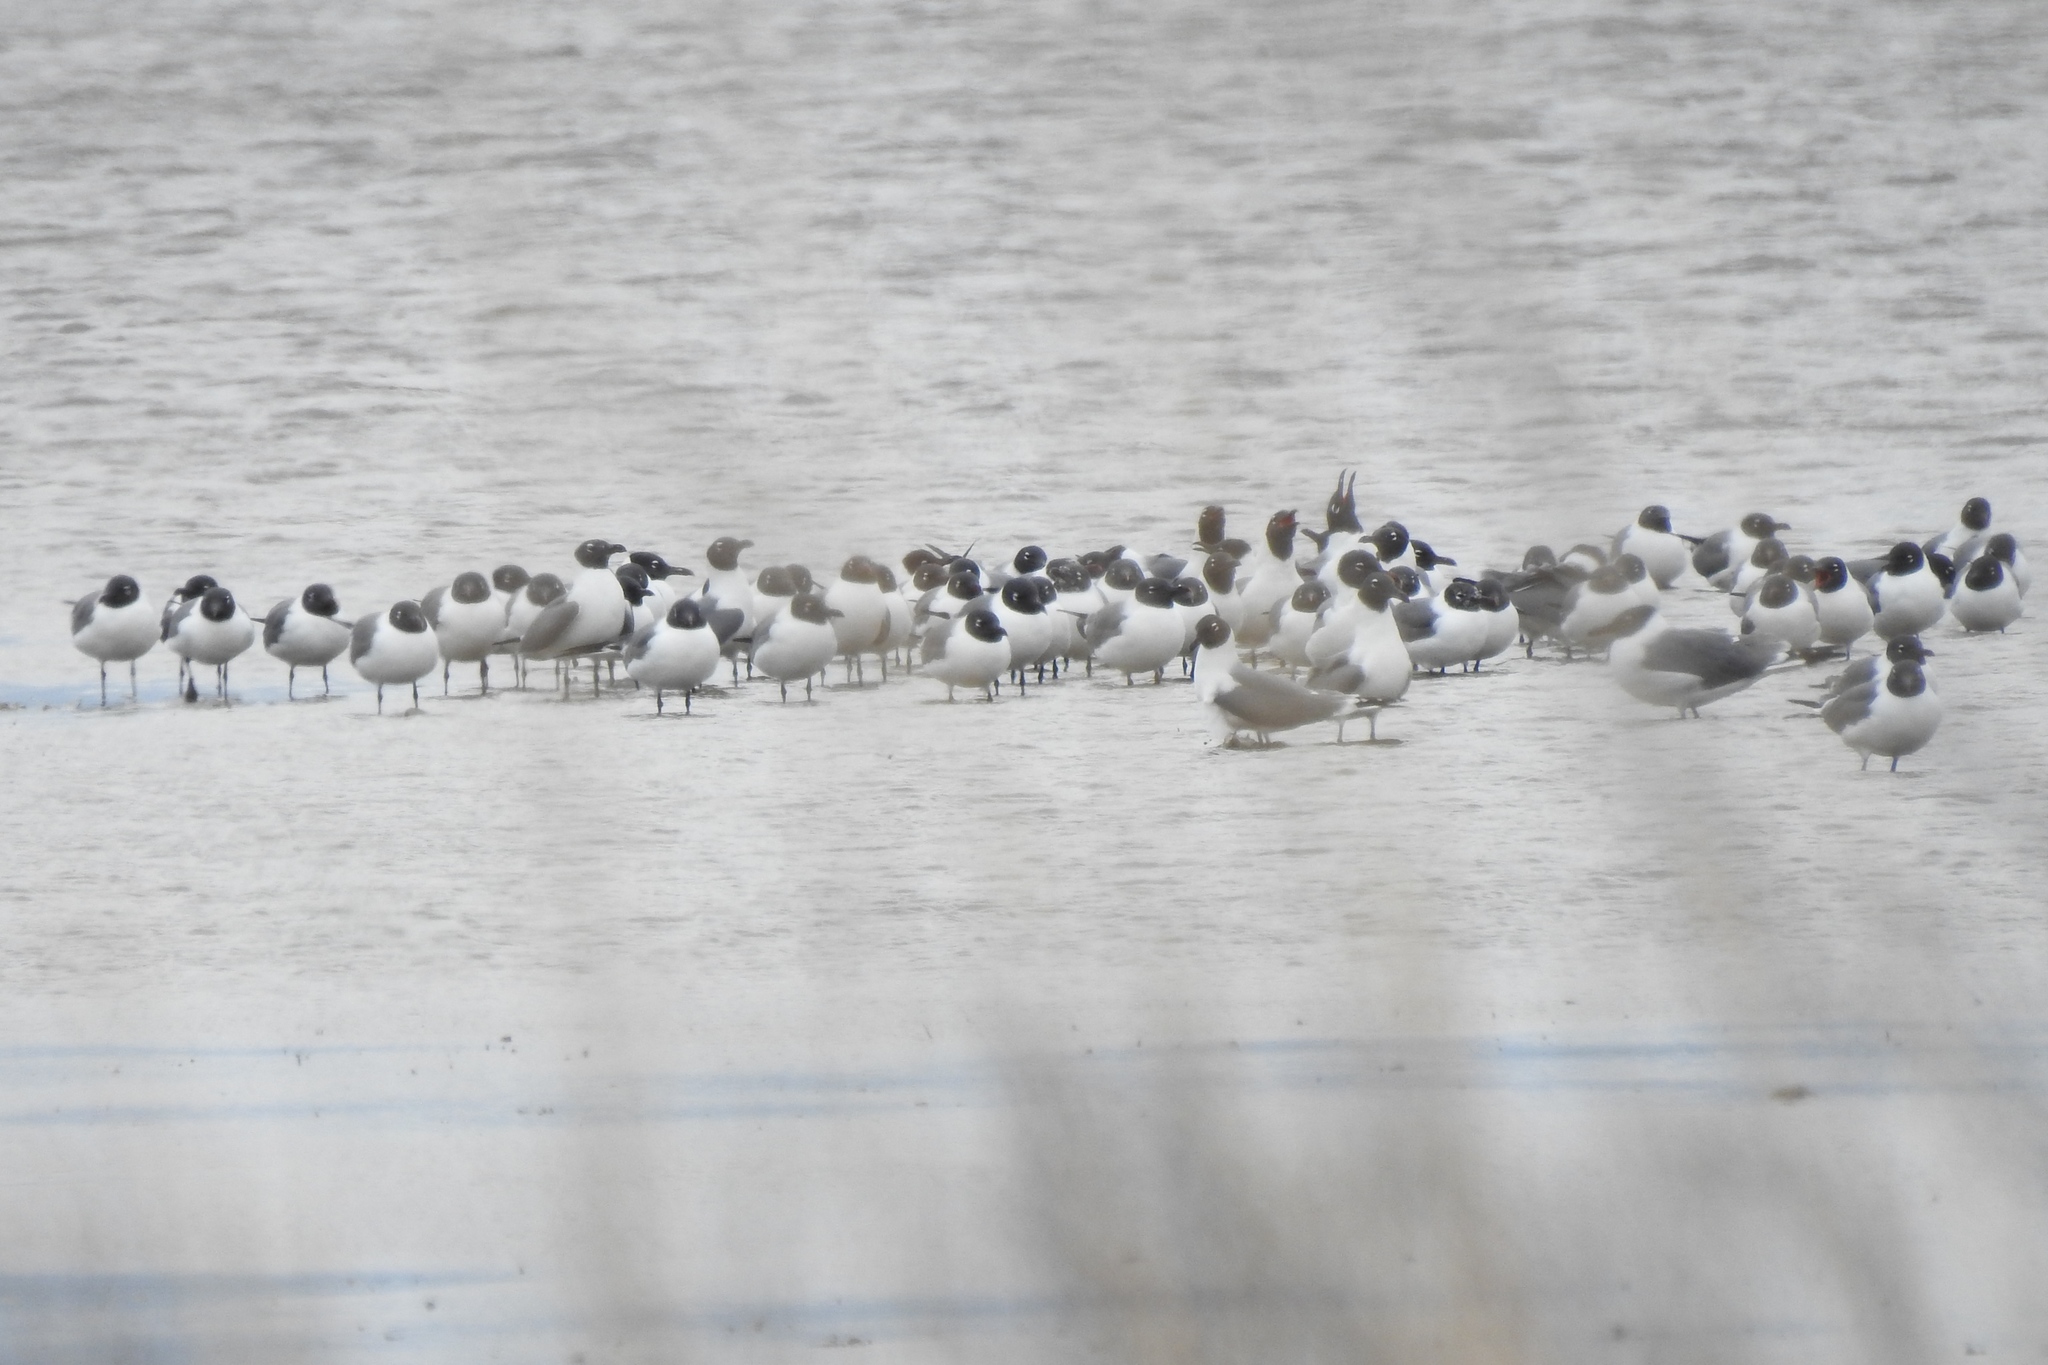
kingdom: Animalia
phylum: Chordata
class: Aves
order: Charadriiformes
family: Laridae
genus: Leucophaeus
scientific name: Leucophaeus atricilla
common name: Laughing gull
